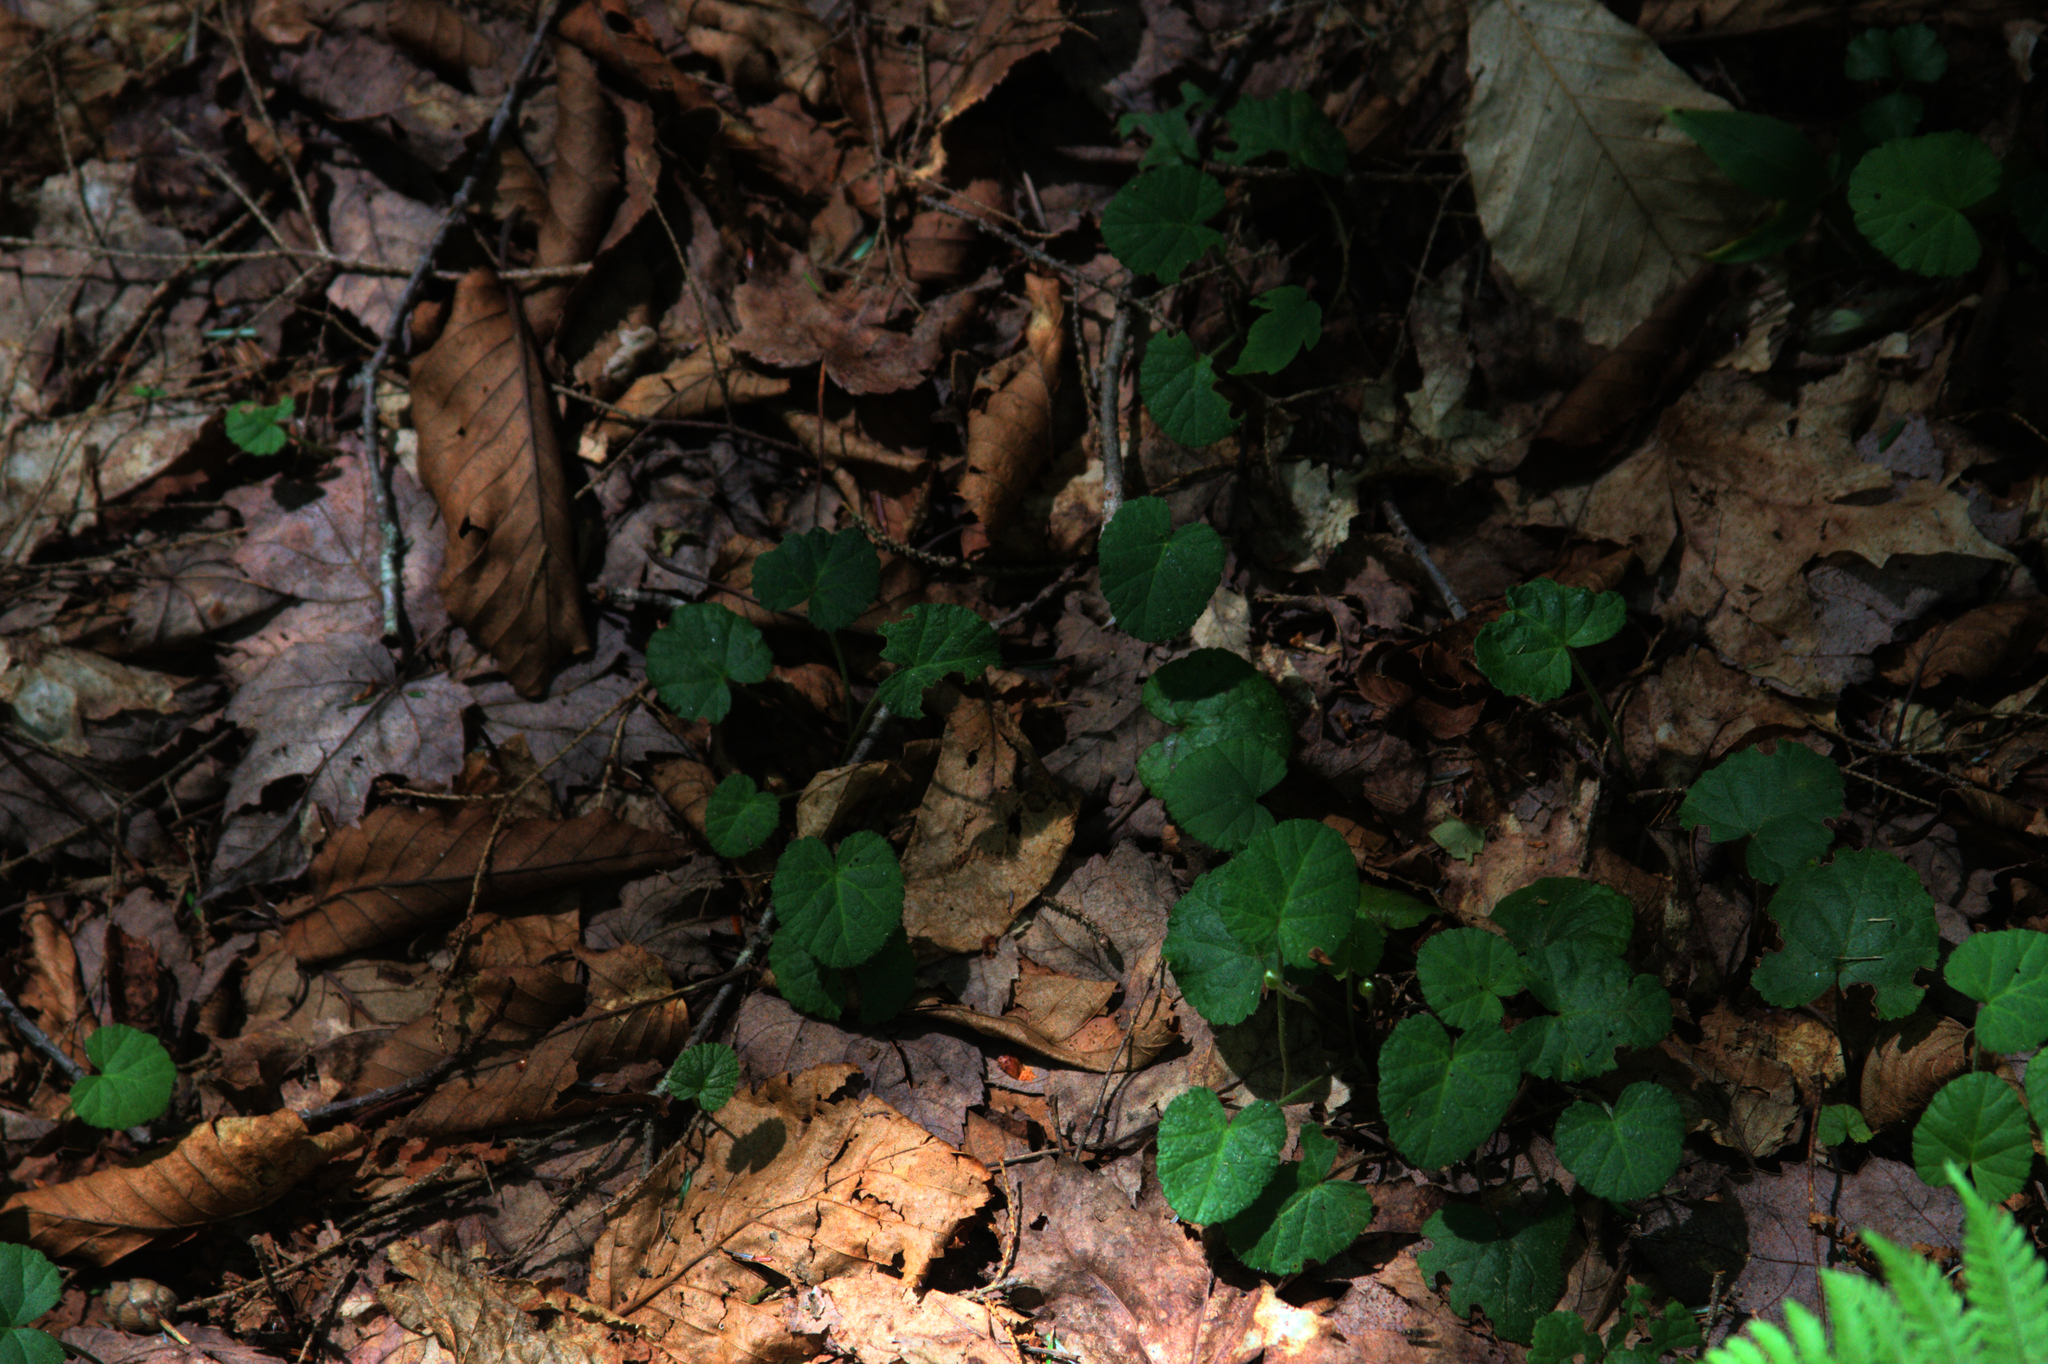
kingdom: Plantae
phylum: Tracheophyta
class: Magnoliopsida
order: Rosales
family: Rosaceae
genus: Dalibarda
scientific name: Dalibarda repens
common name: Dewdrop
